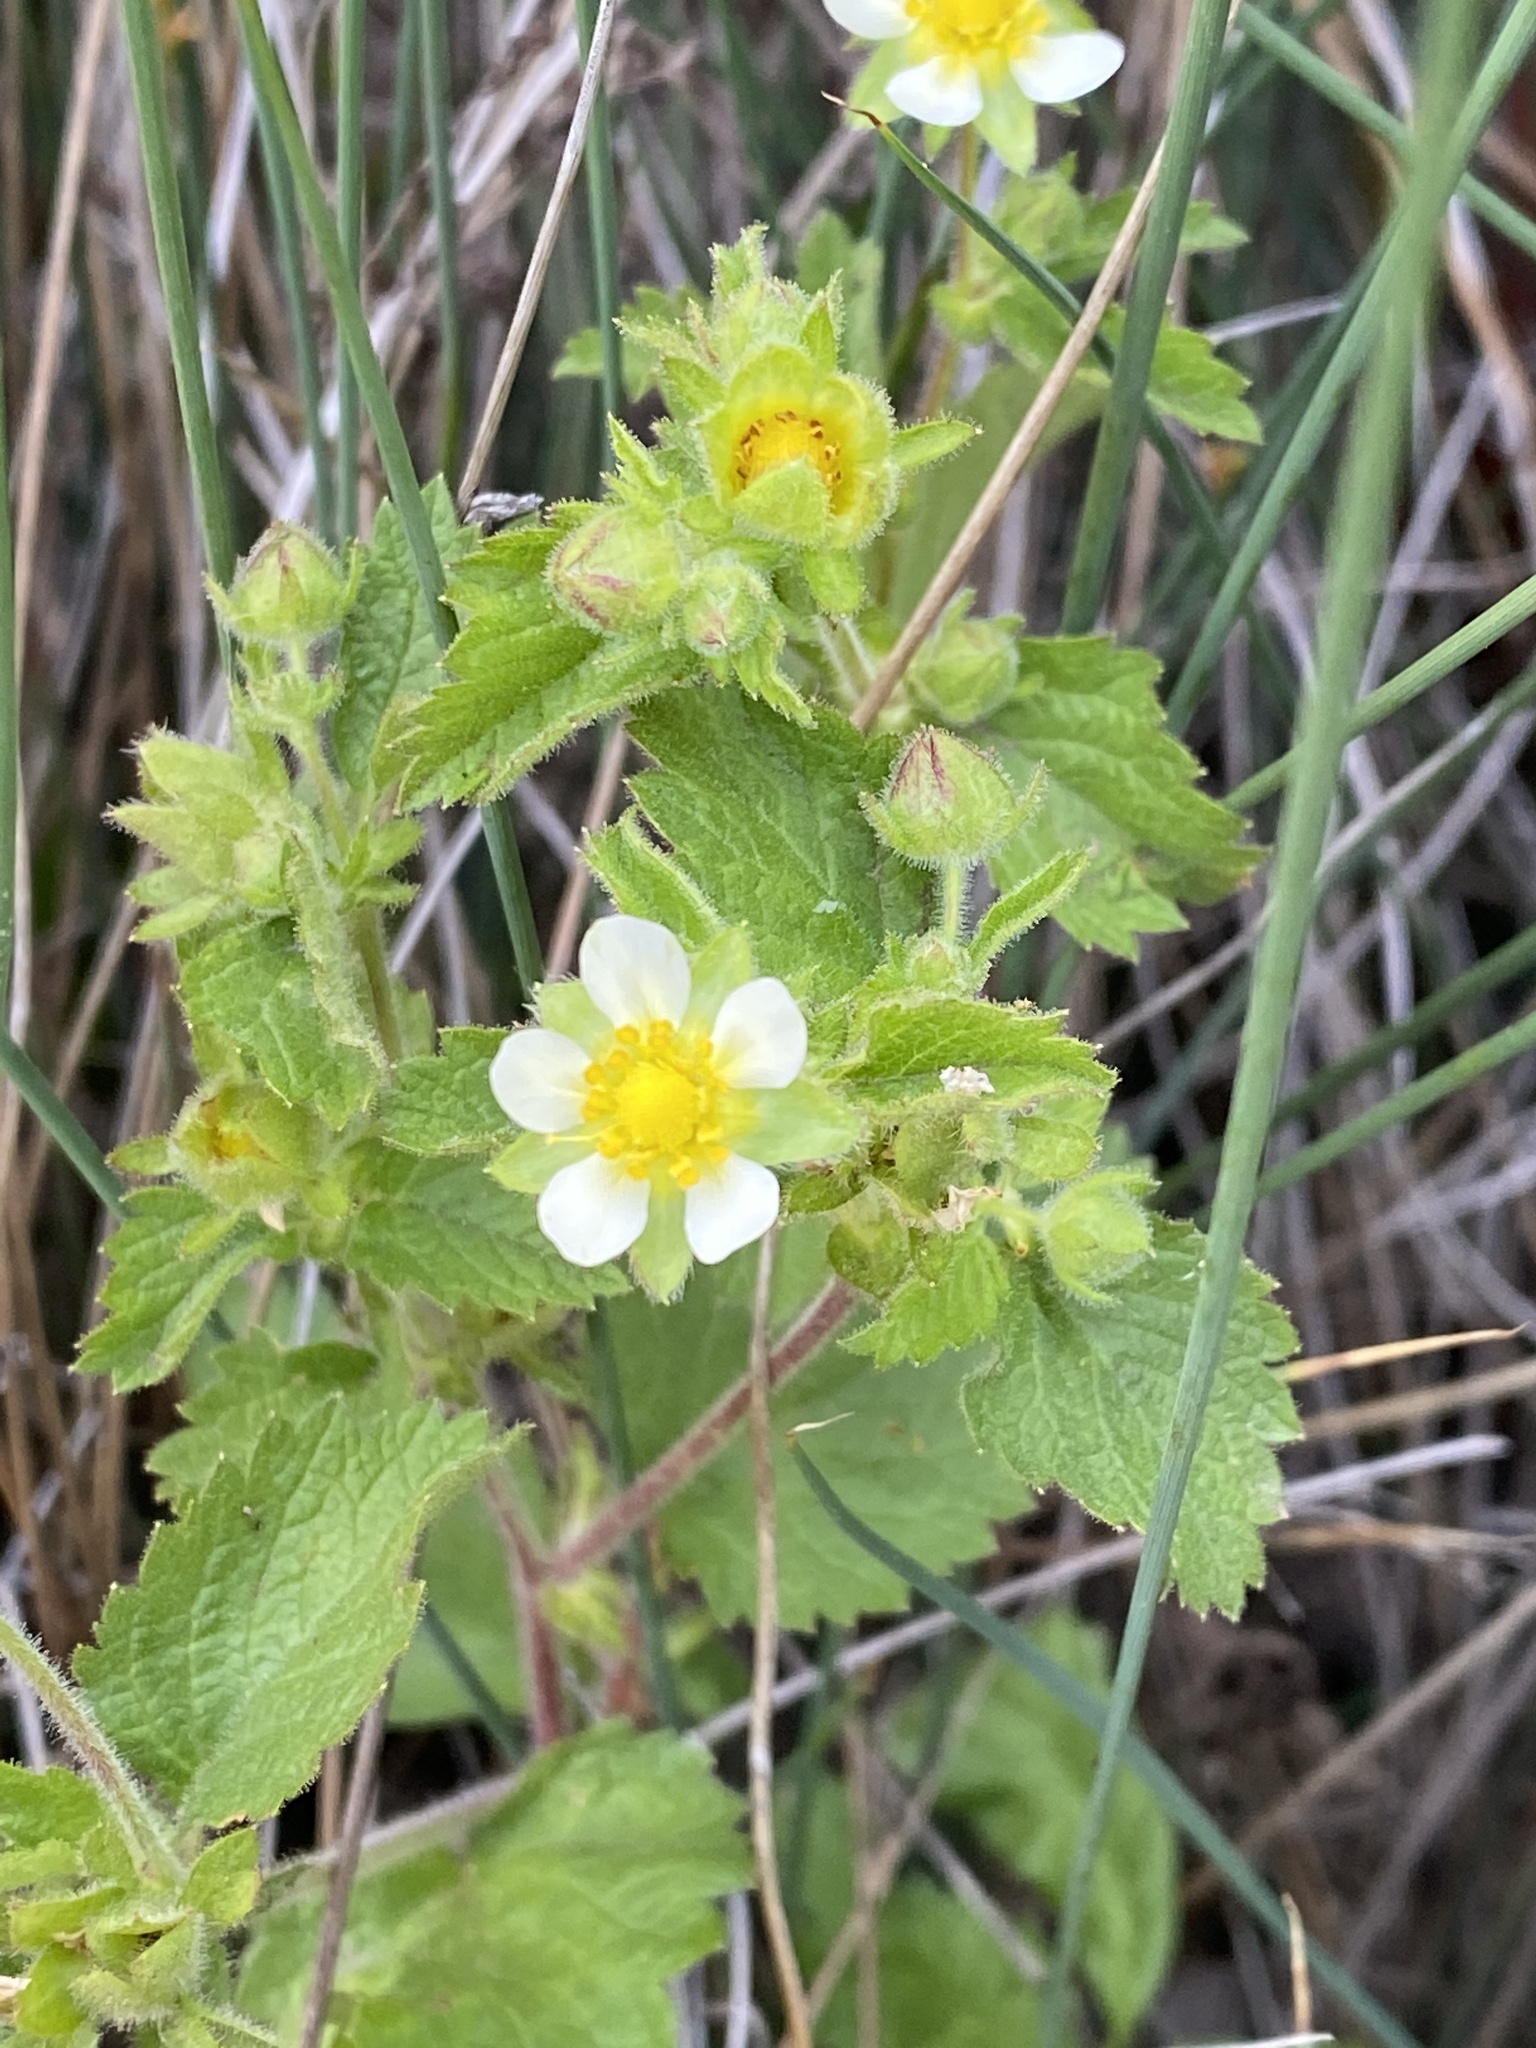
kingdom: Plantae
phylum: Tracheophyta
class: Magnoliopsida
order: Rosales
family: Rosaceae
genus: Drymocallis
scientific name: Drymocallis glandulosa
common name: Sticky cinquefoil
